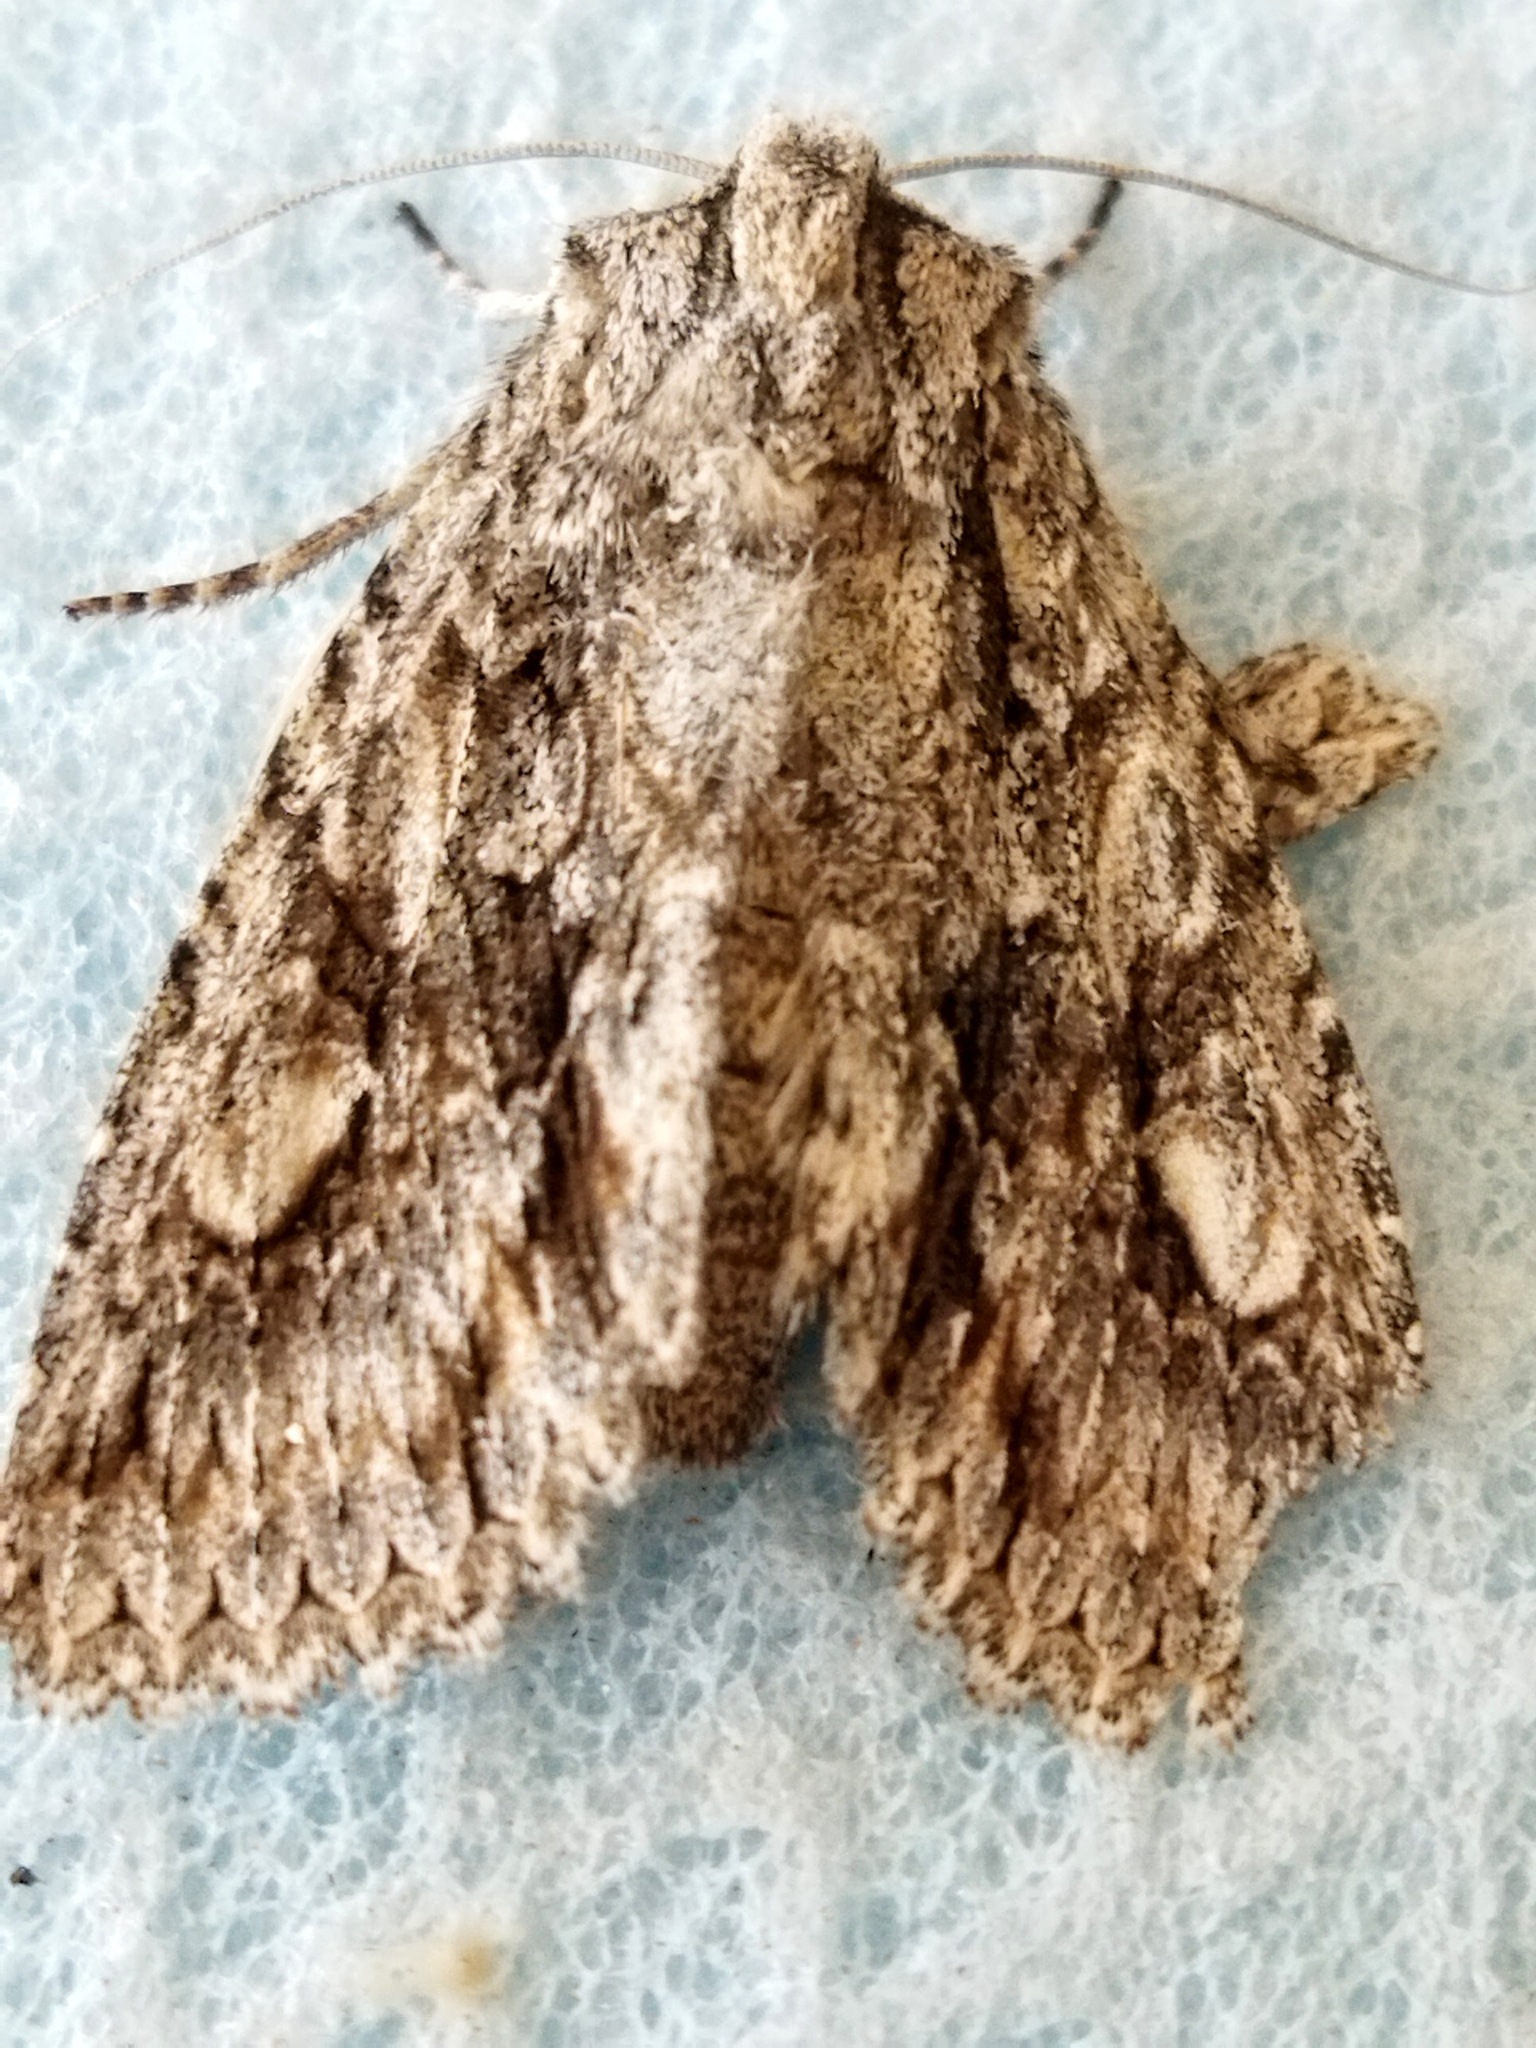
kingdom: Animalia
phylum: Arthropoda
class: Insecta
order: Lepidoptera
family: Noctuidae
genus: Meganephria
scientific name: Meganephria bimaculosa
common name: Double-spot brocade
